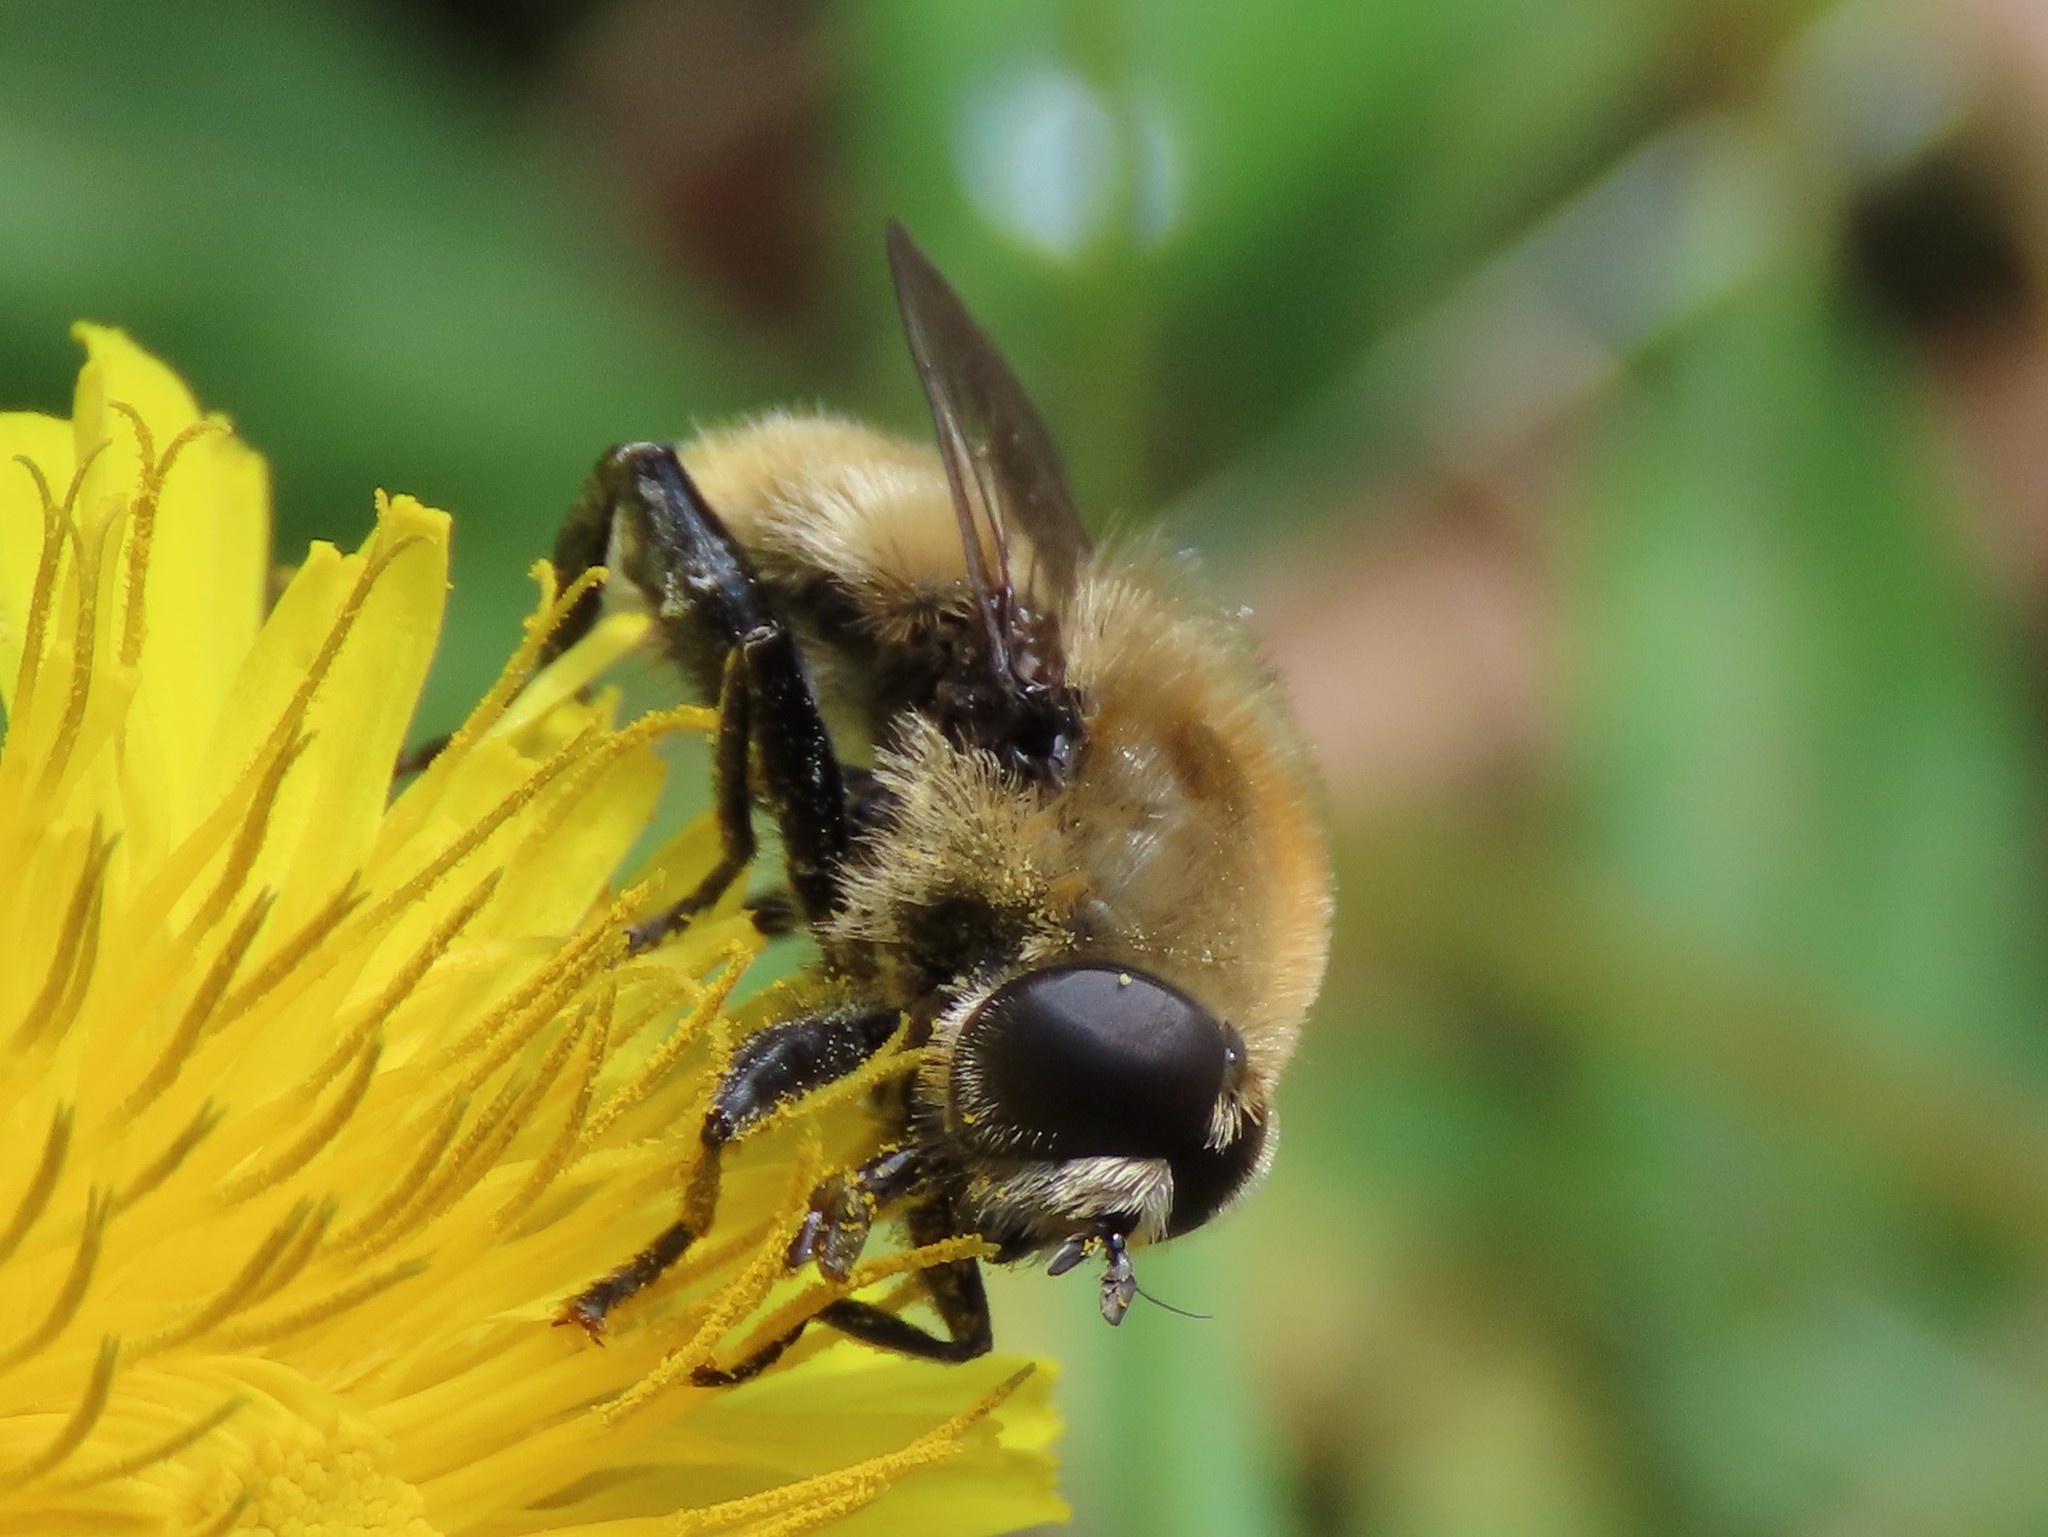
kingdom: Animalia
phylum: Arthropoda
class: Insecta
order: Diptera
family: Syrphidae
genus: Merodon
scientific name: Merodon equestris
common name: Greater bulb-fly
